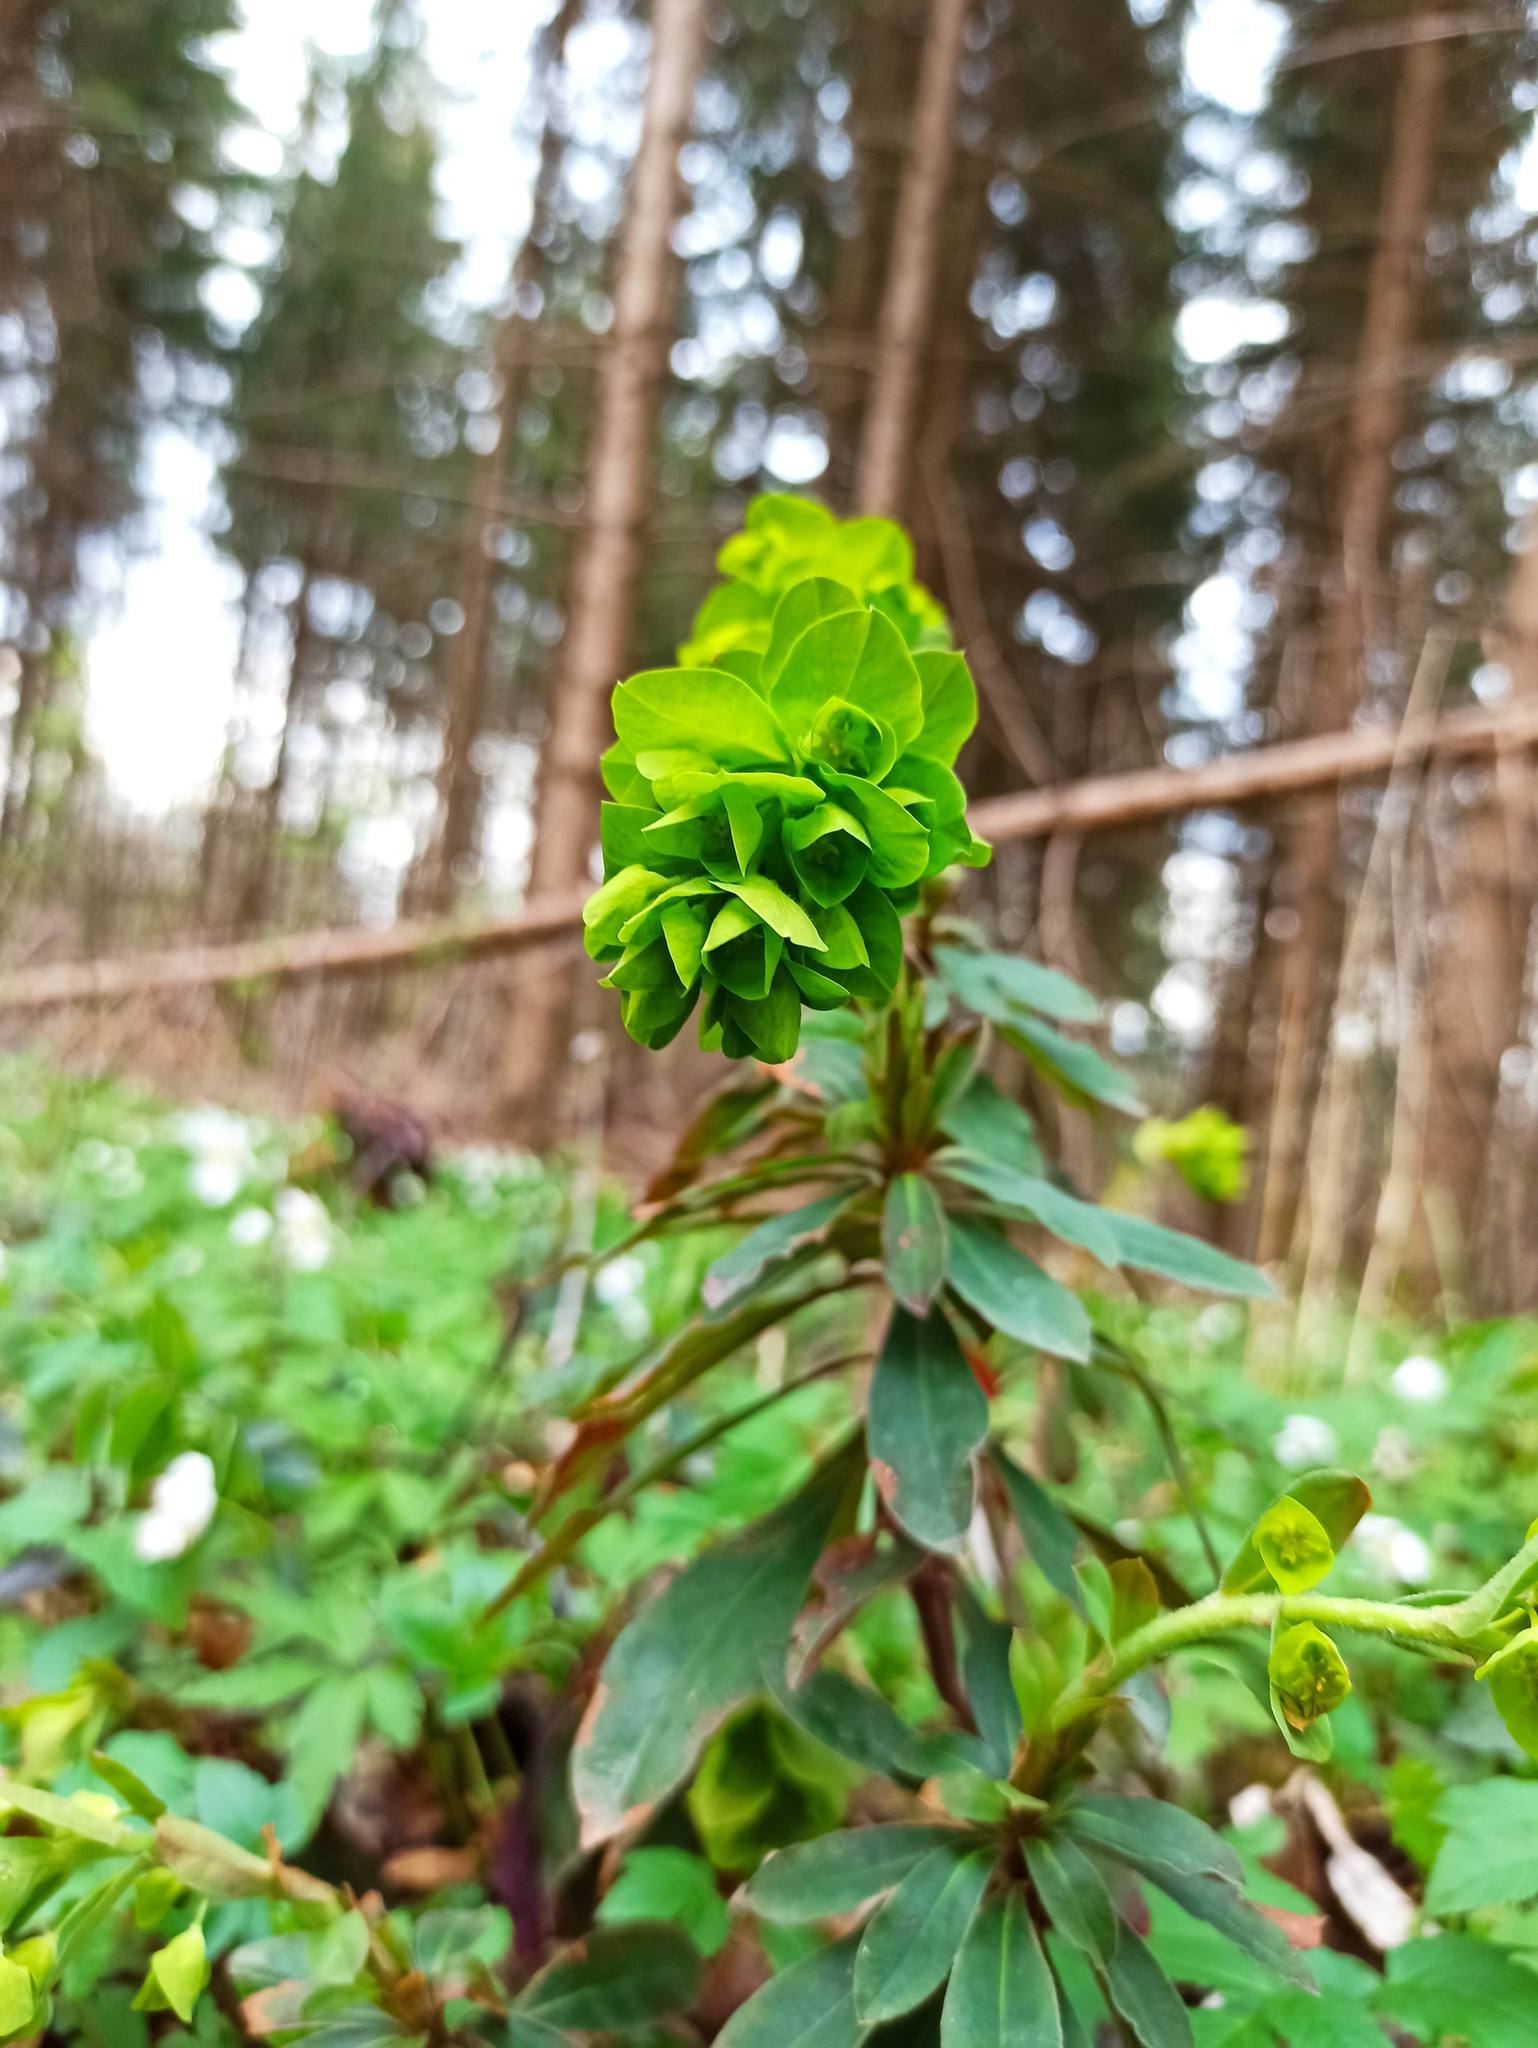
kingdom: Plantae
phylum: Tracheophyta
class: Magnoliopsida
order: Malpighiales
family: Euphorbiaceae
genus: Euphorbia
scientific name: Euphorbia amygdaloides
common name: Wood spurge
